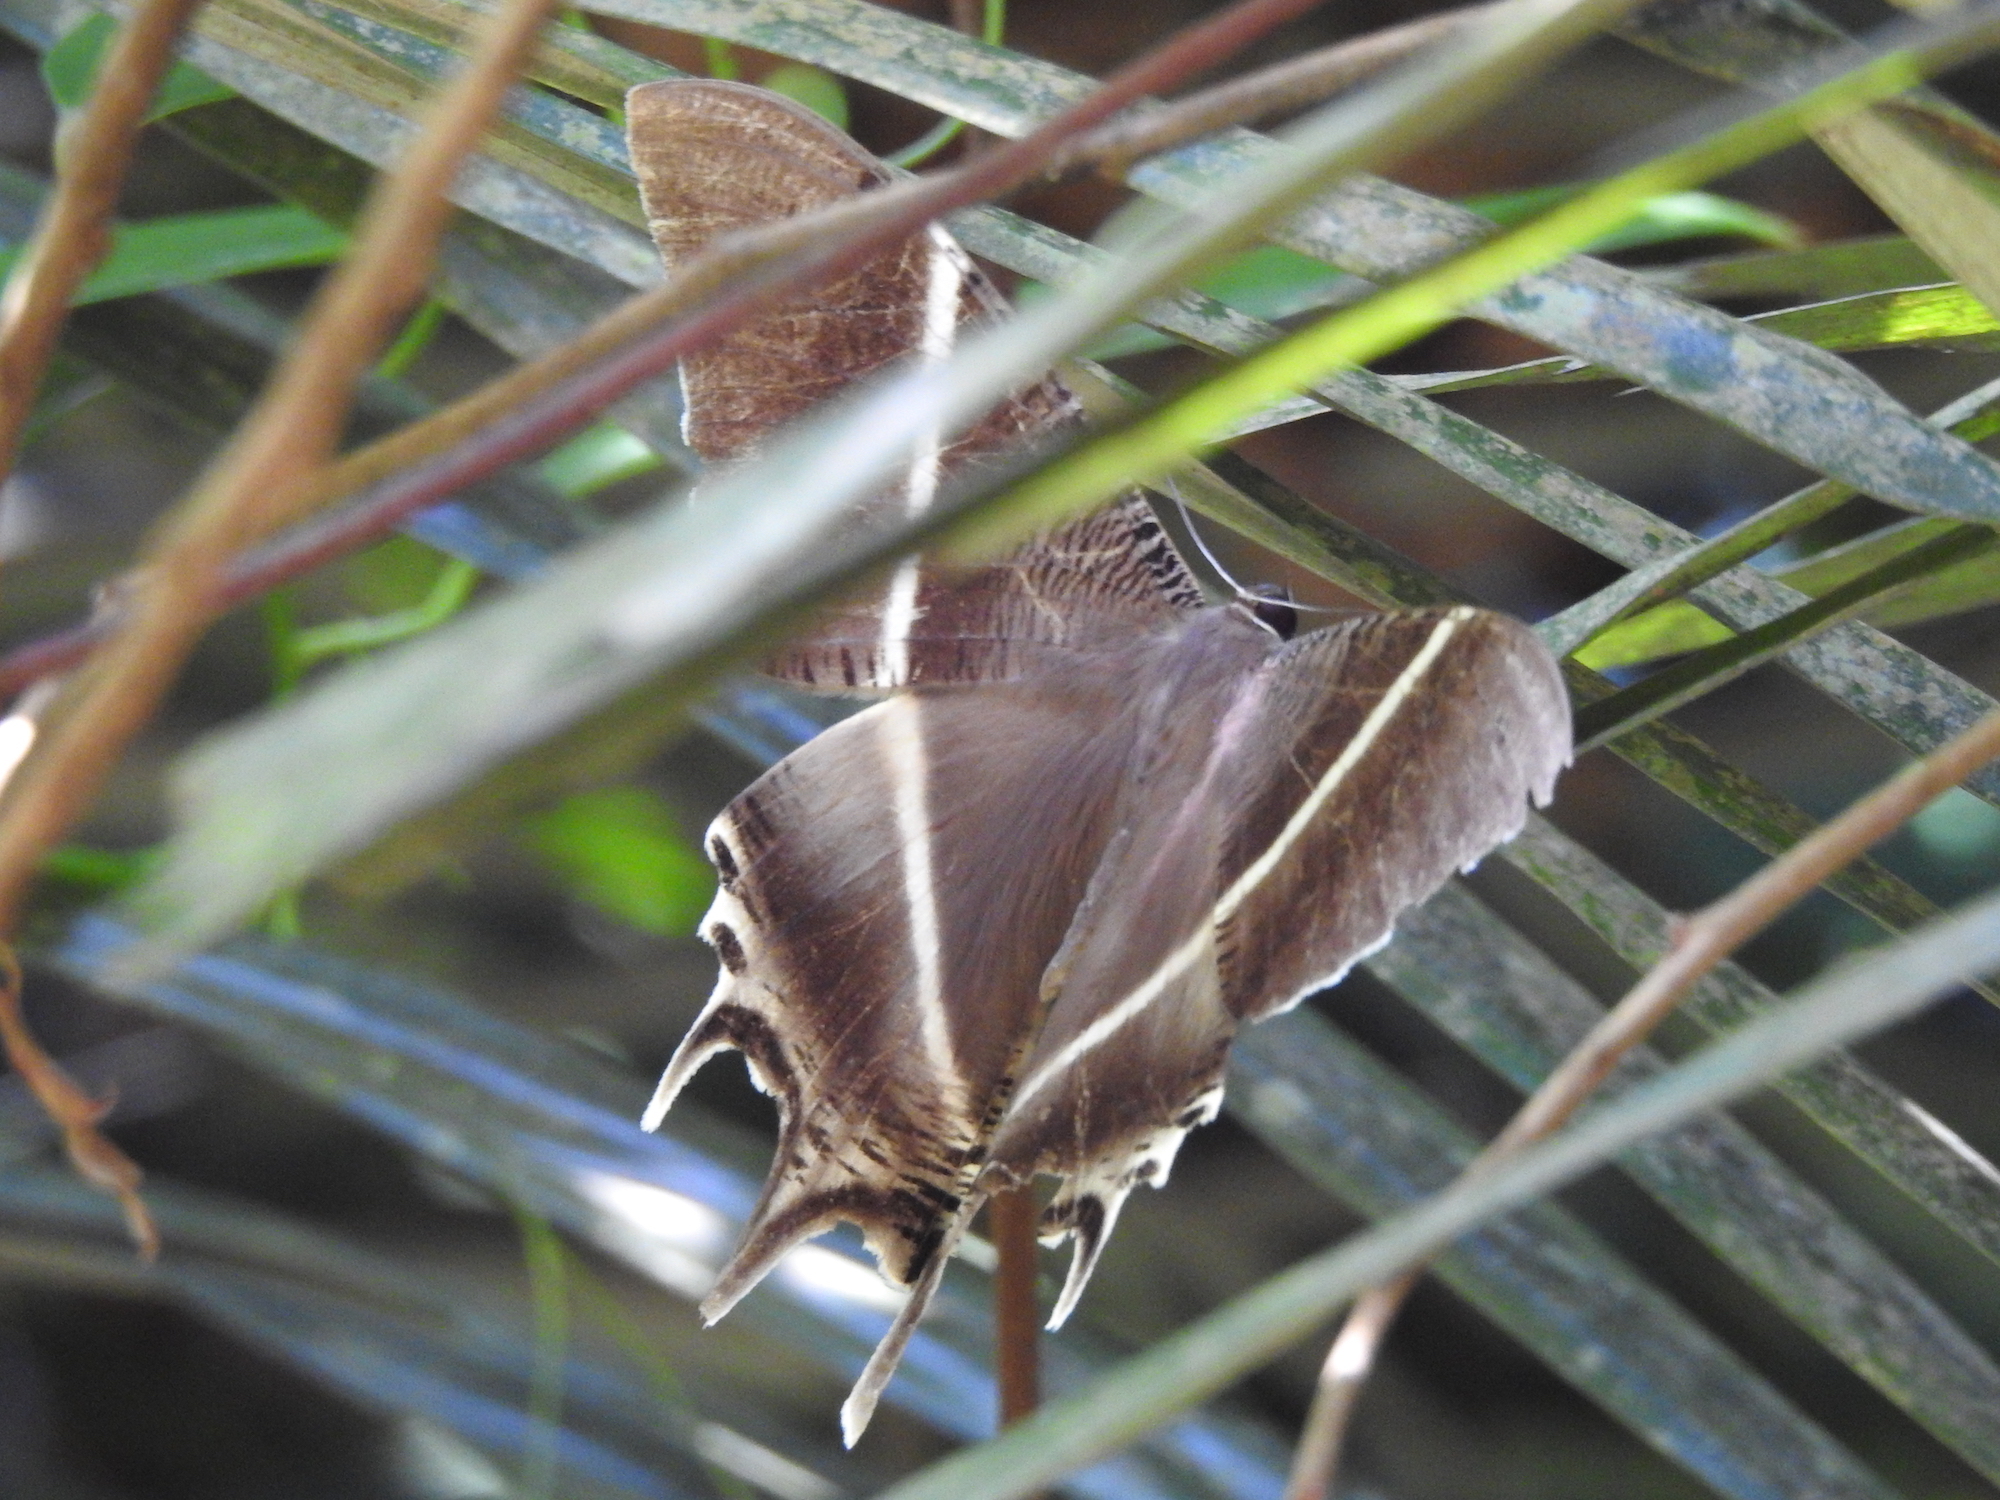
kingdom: Animalia
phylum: Arthropoda
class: Insecta
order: Lepidoptera
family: Uraniidae
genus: Lyssa
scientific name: Lyssa zampa
